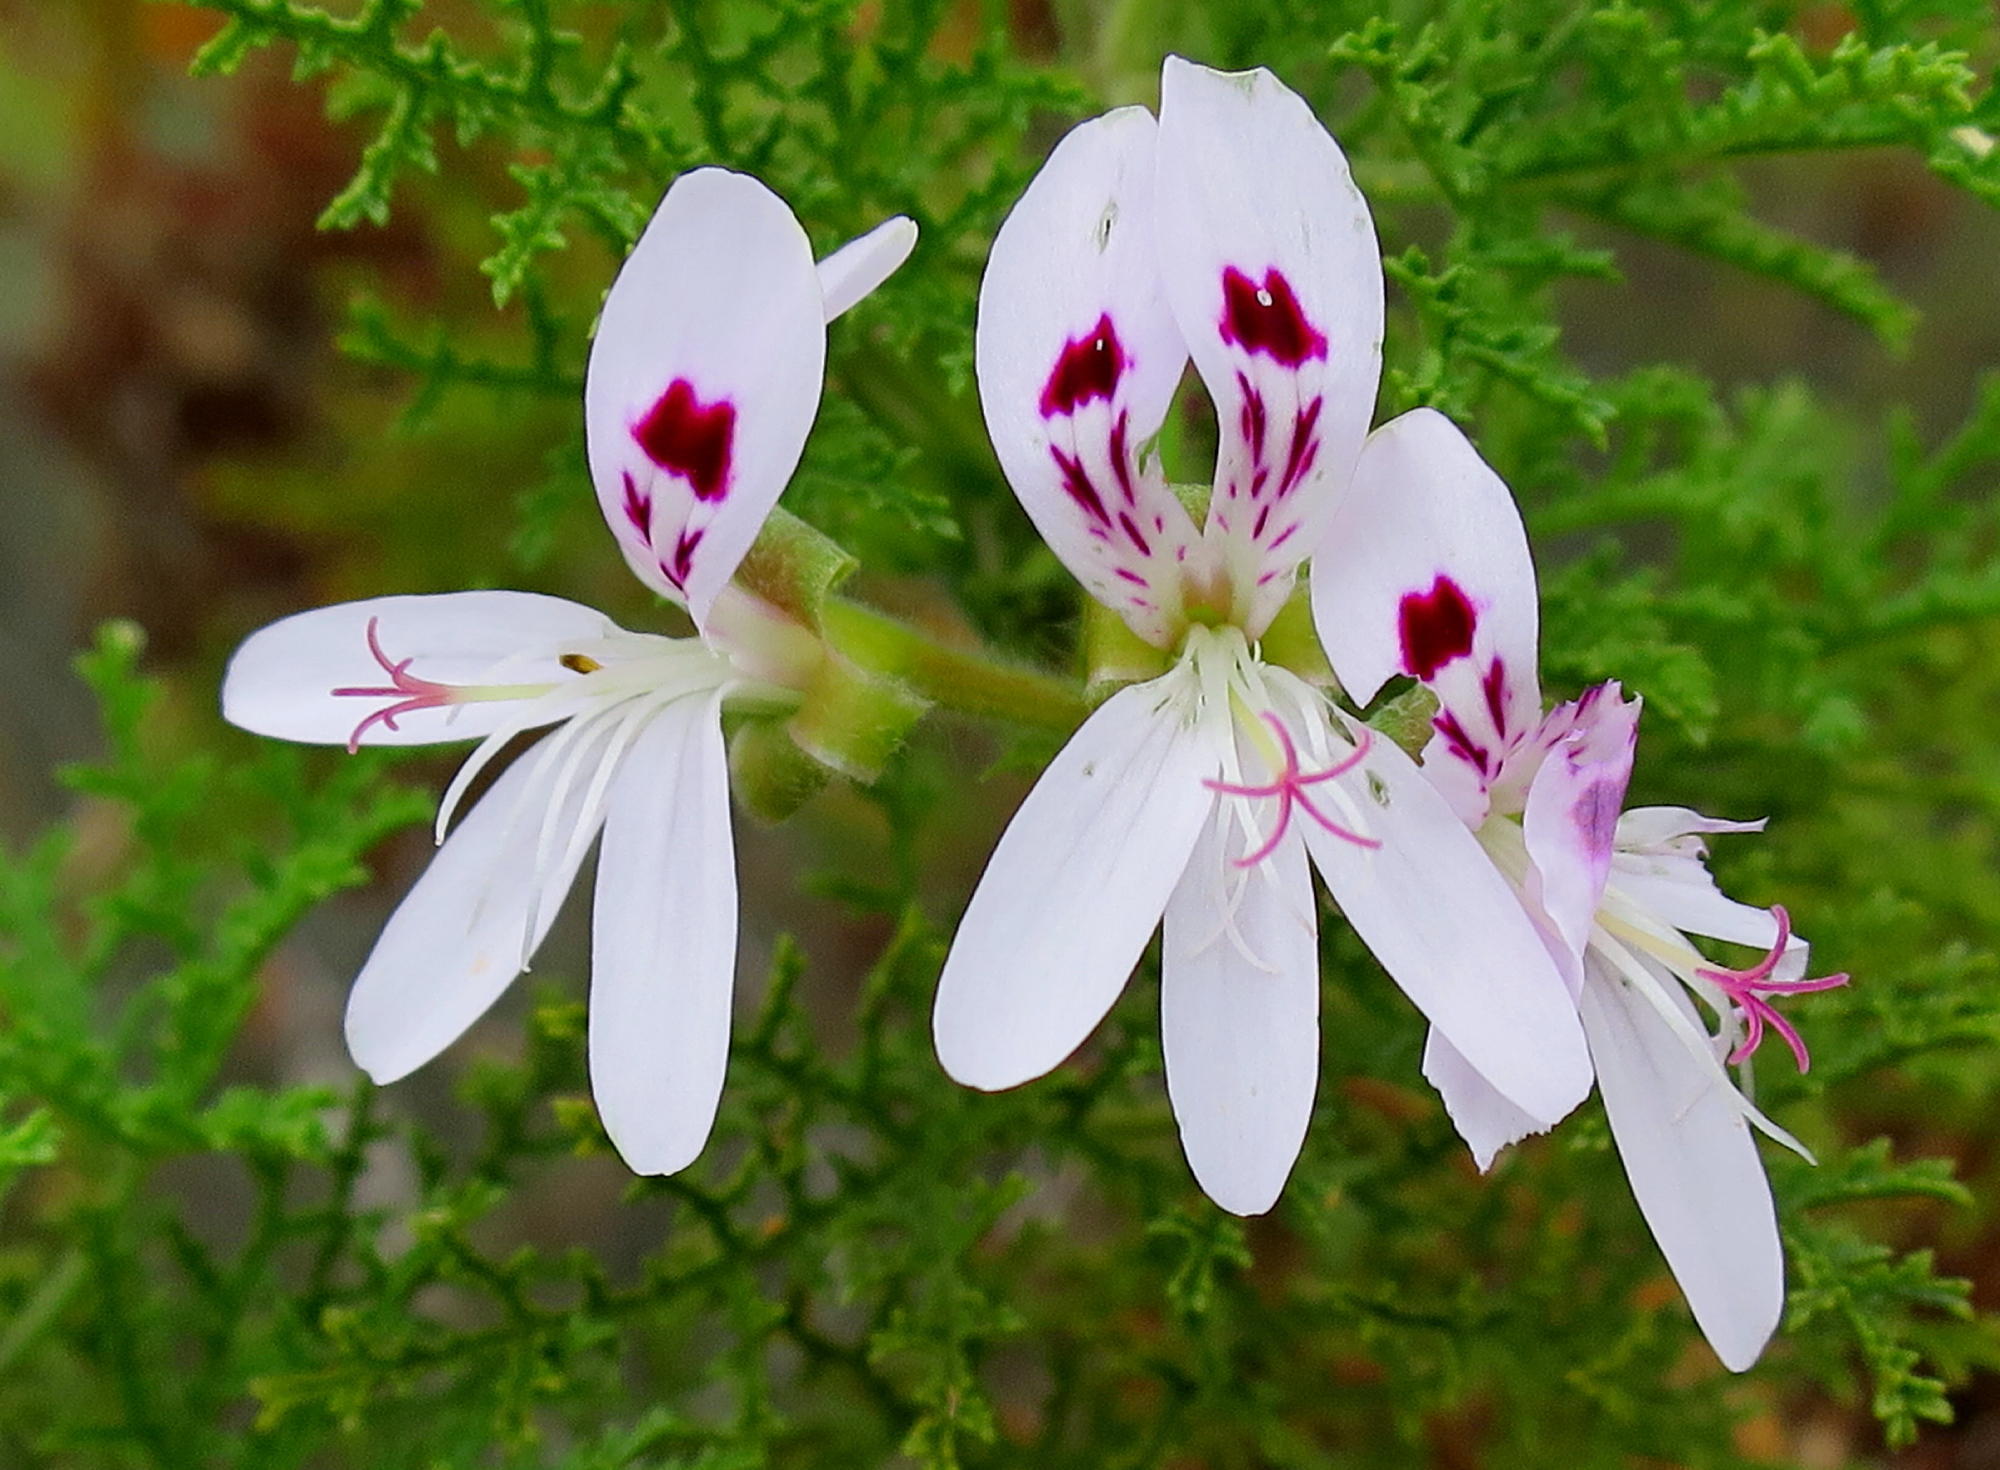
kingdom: Plantae
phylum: Tracheophyta
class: Magnoliopsida
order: Geraniales
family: Geraniaceae
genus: Pelargonium
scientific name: Pelargonium denticulatum
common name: Pine geranium
